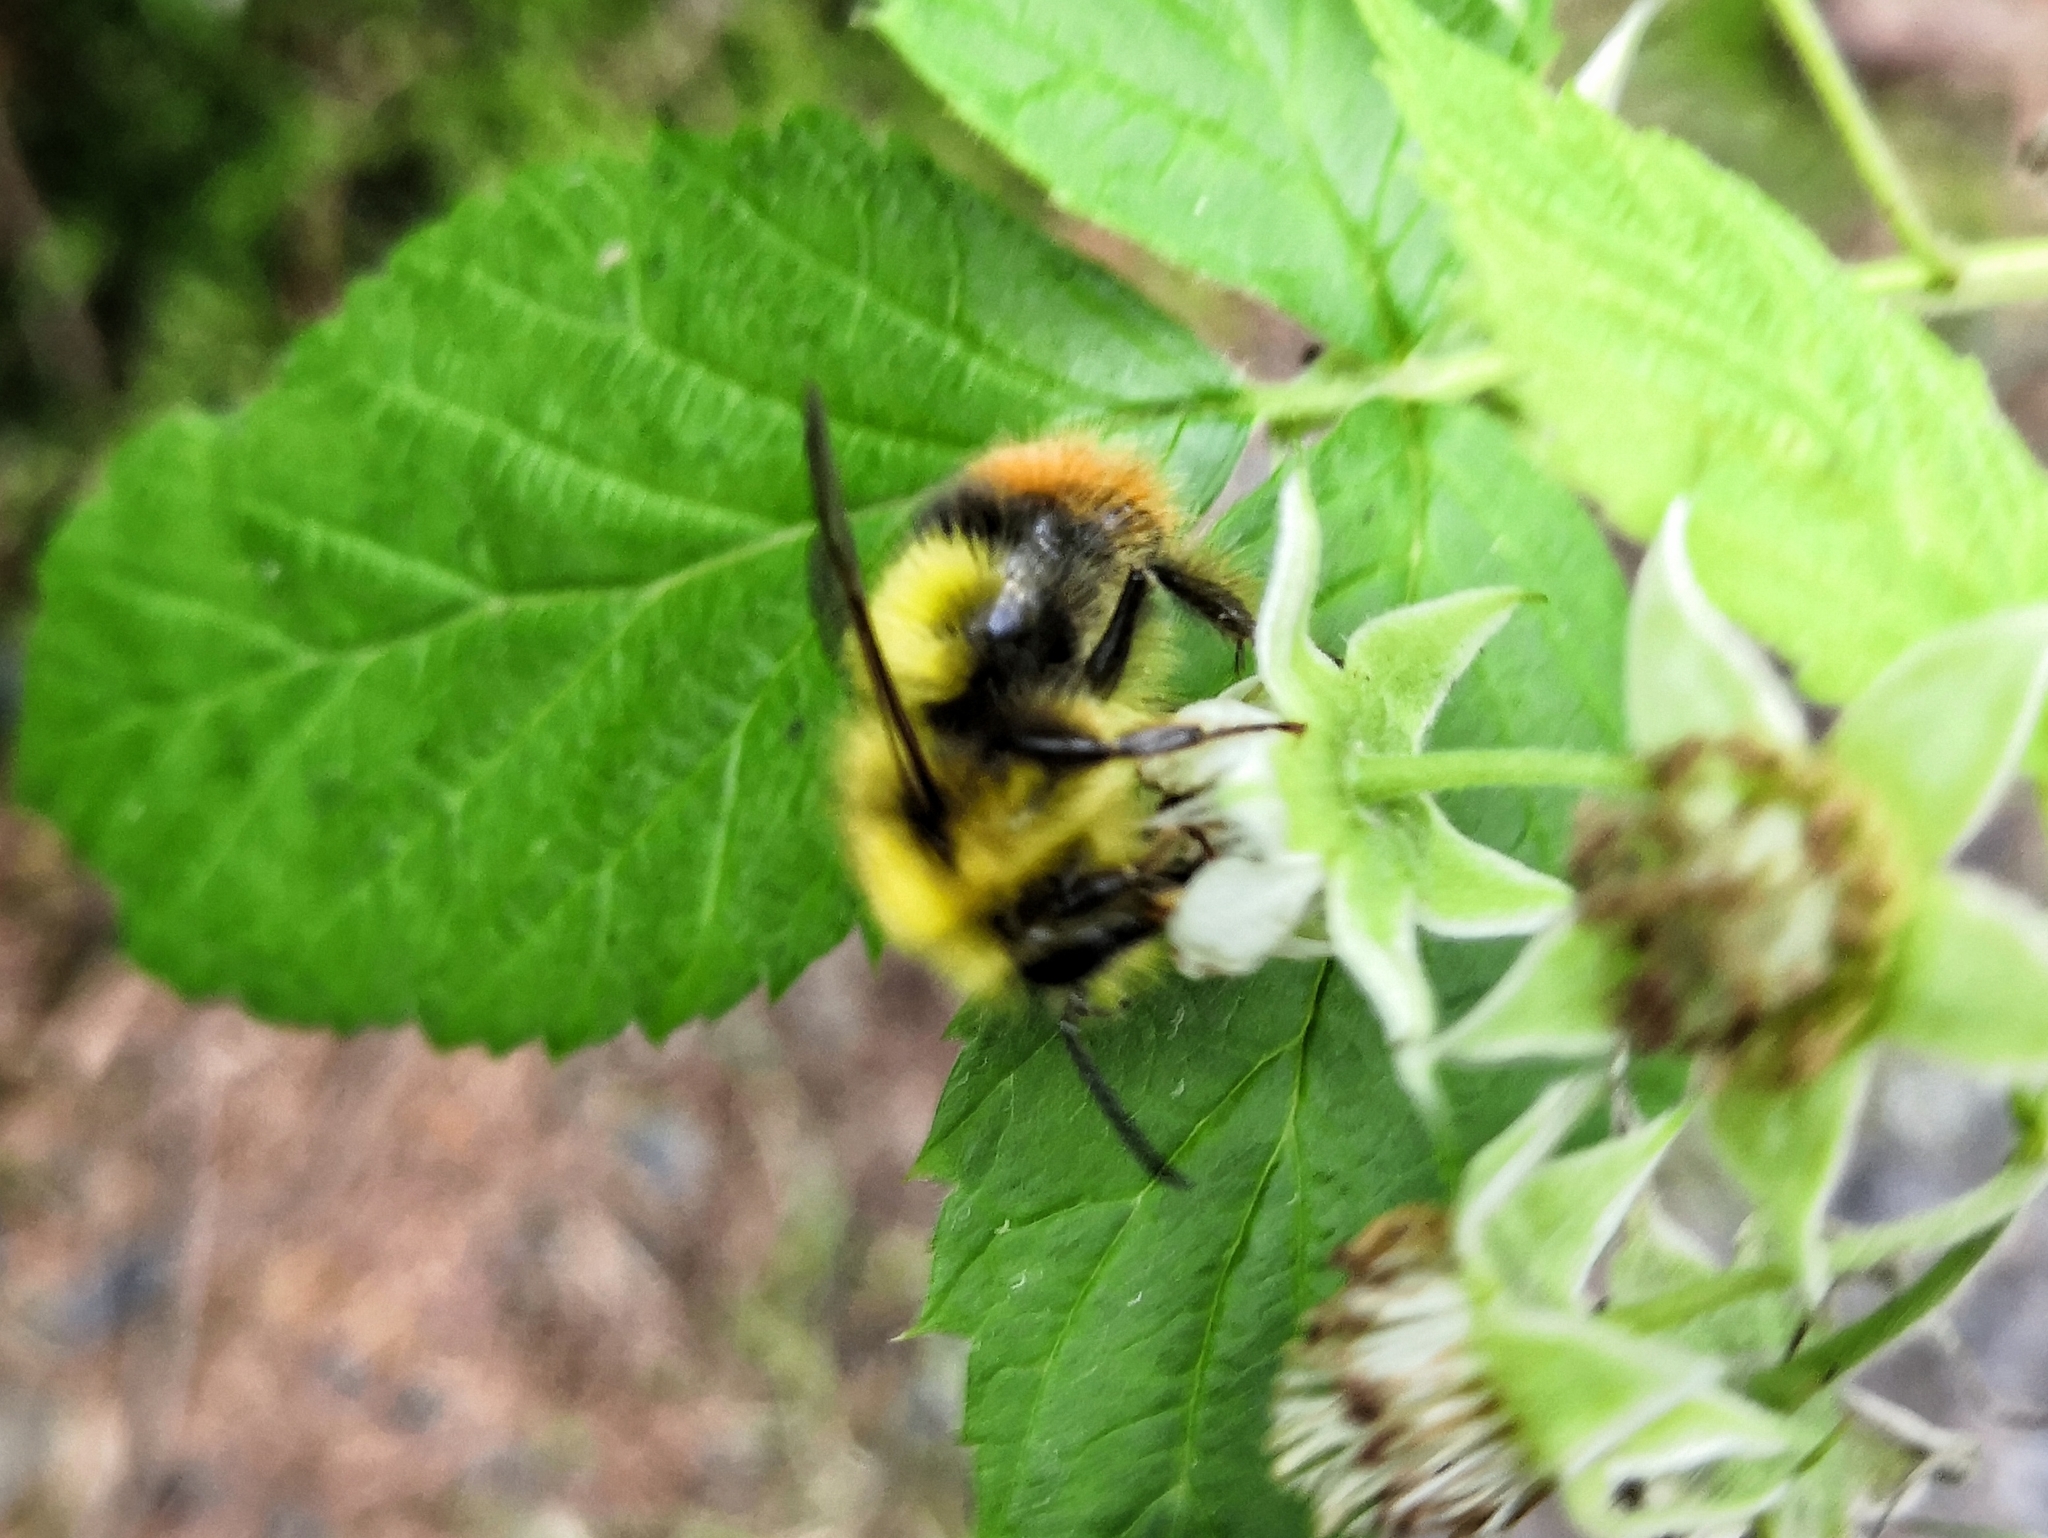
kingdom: Animalia
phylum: Arthropoda
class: Insecta
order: Hymenoptera
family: Apidae
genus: Bombus
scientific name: Bombus pratorum
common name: Early humble-bee
